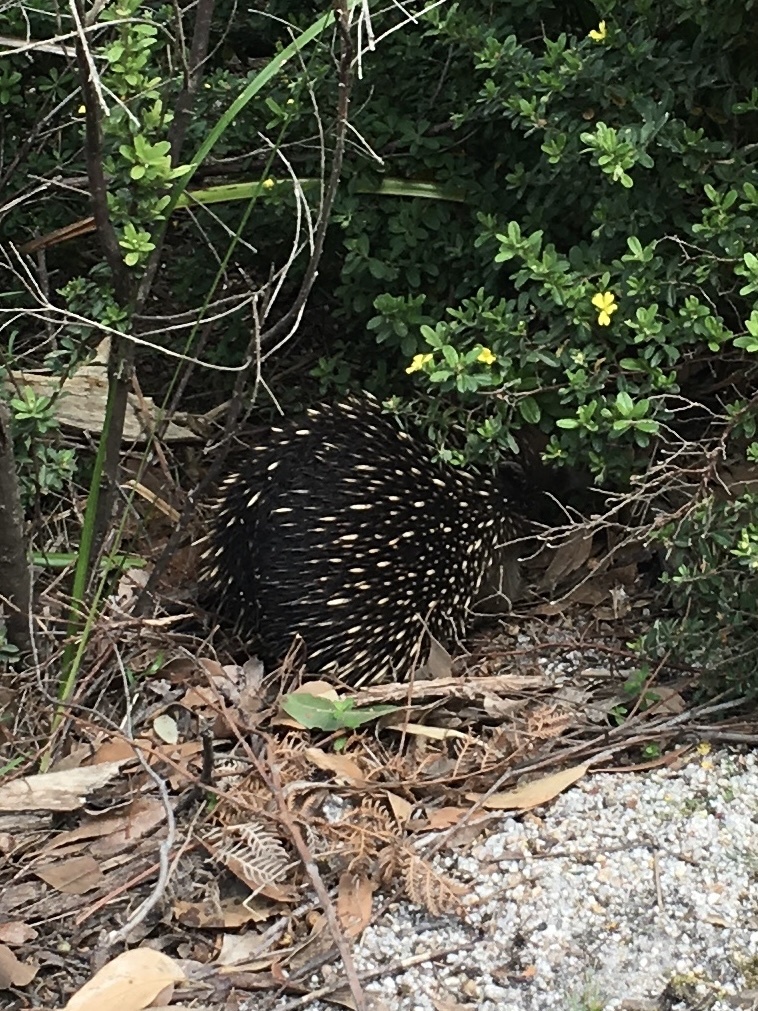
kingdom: Animalia
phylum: Chordata
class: Mammalia
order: Monotremata
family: Tachyglossidae
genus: Tachyglossus
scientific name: Tachyglossus aculeatus
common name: Short-beaked echidna
